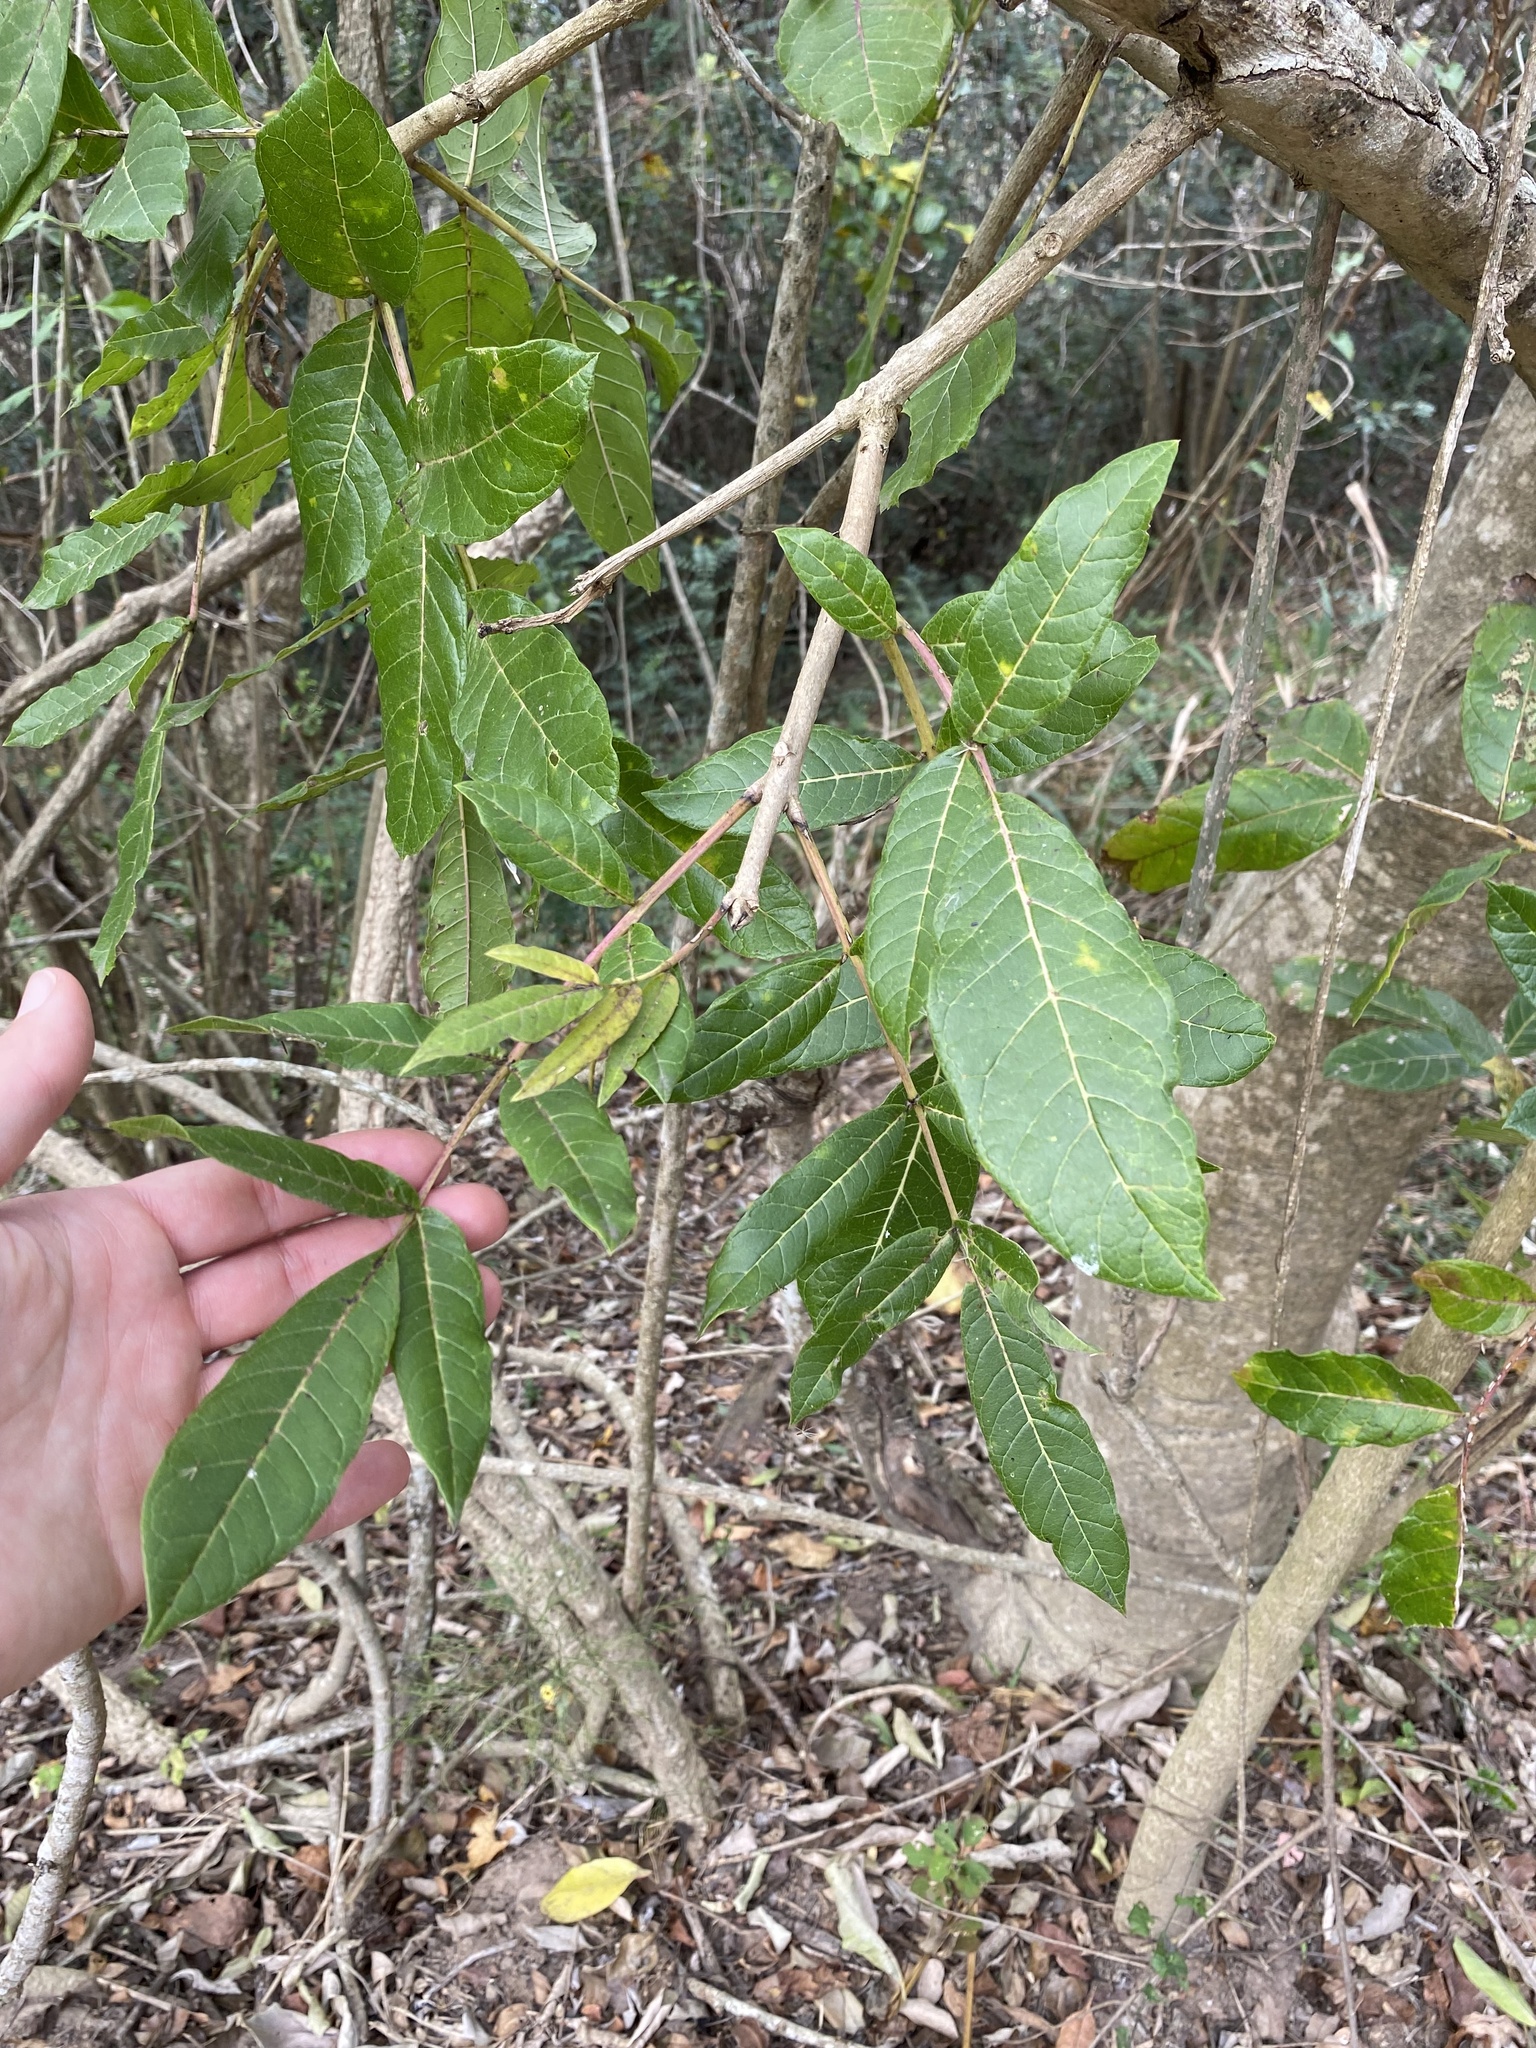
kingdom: Plantae
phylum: Tracheophyta
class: Magnoliopsida
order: Lamiales
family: Bignoniaceae
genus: Kigelia
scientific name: Kigelia africana
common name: Sausage tree
